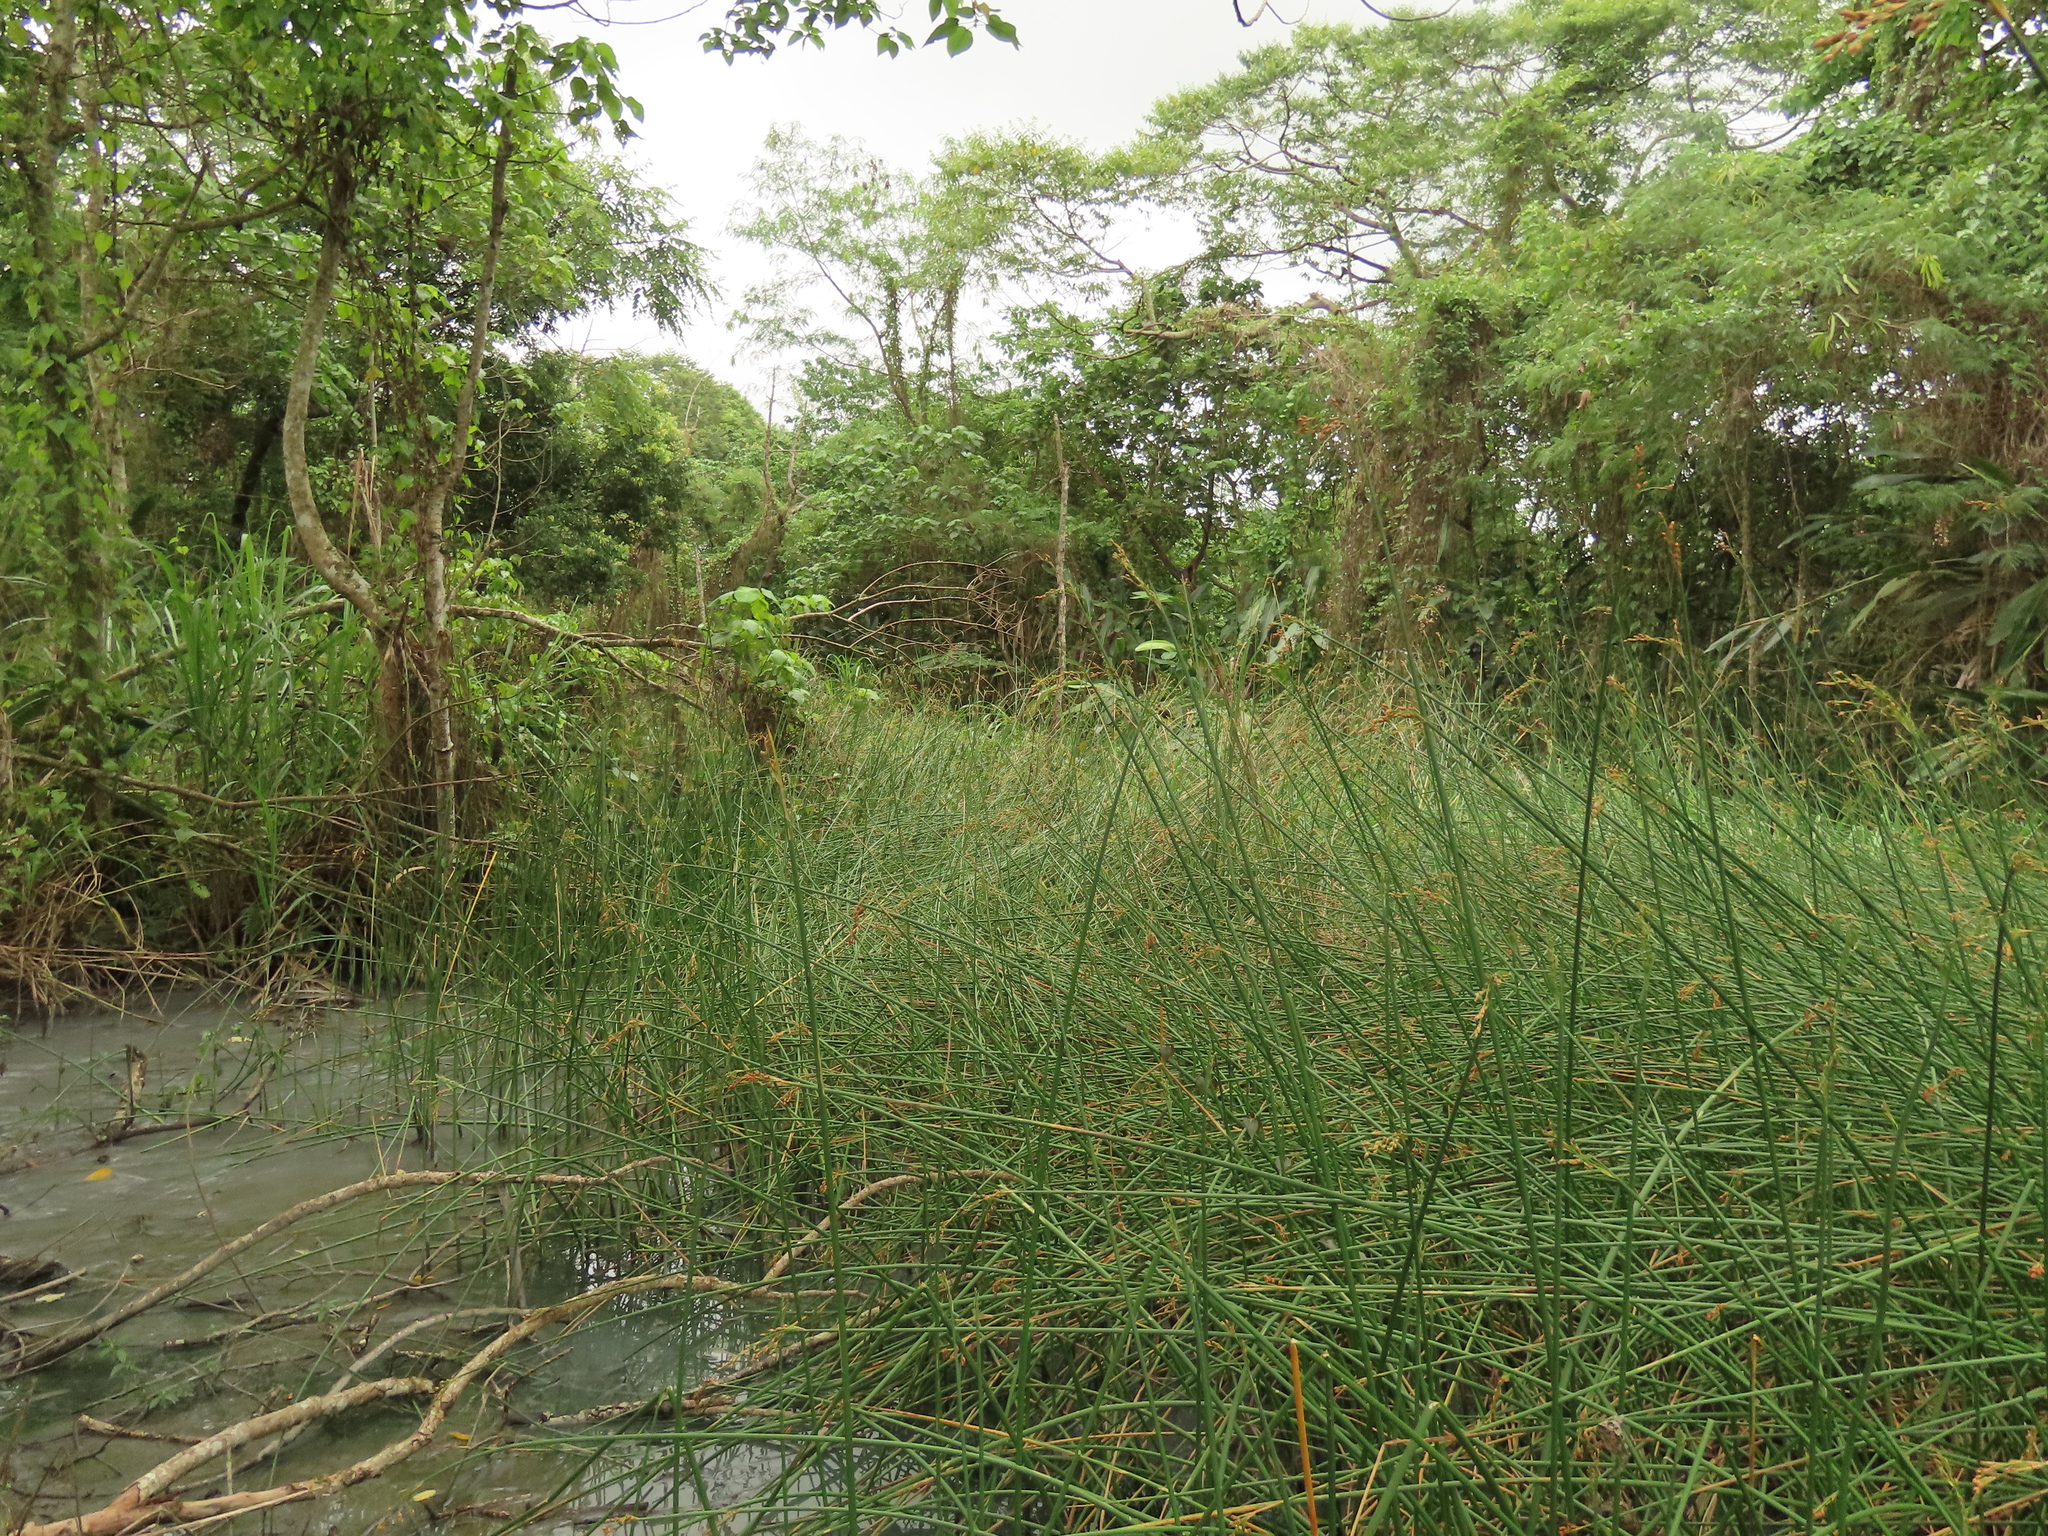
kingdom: Plantae
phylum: Tracheophyta
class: Liliopsida
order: Poales
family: Cyperaceae
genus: Schoenoplectus
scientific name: Schoenoplectus tabernaemontani
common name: Grey club-rush
